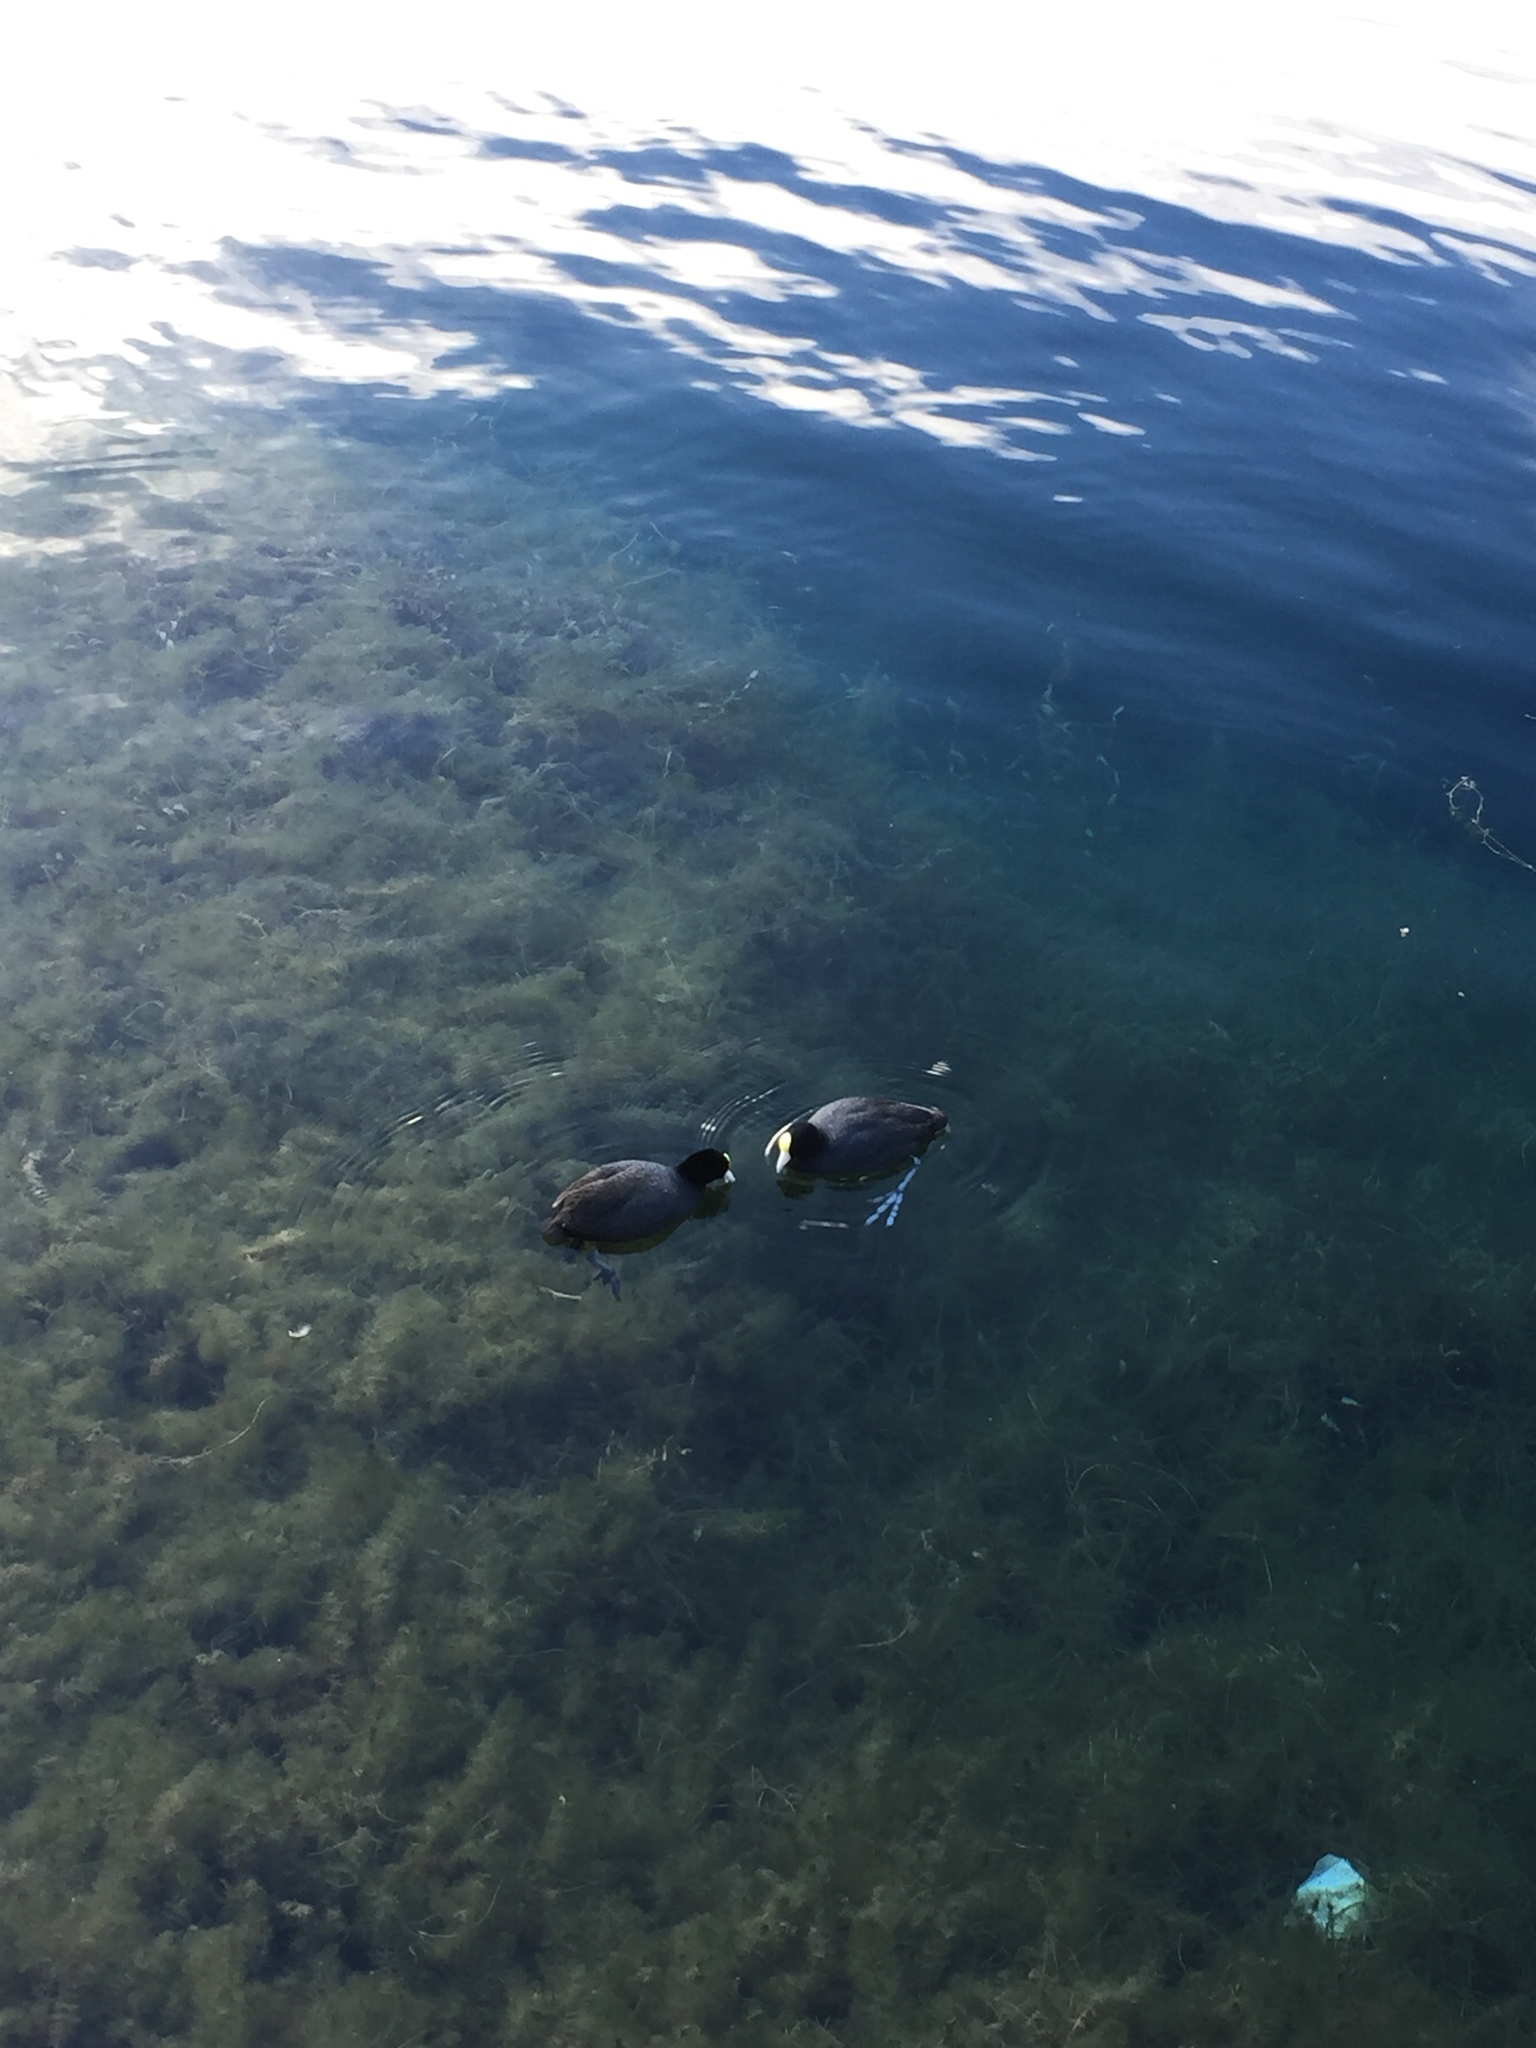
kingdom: Animalia
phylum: Chordata
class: Aves
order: Gruiformes
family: Rallidae
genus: Fulica
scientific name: Fulica ardesiaca
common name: Andean coot
